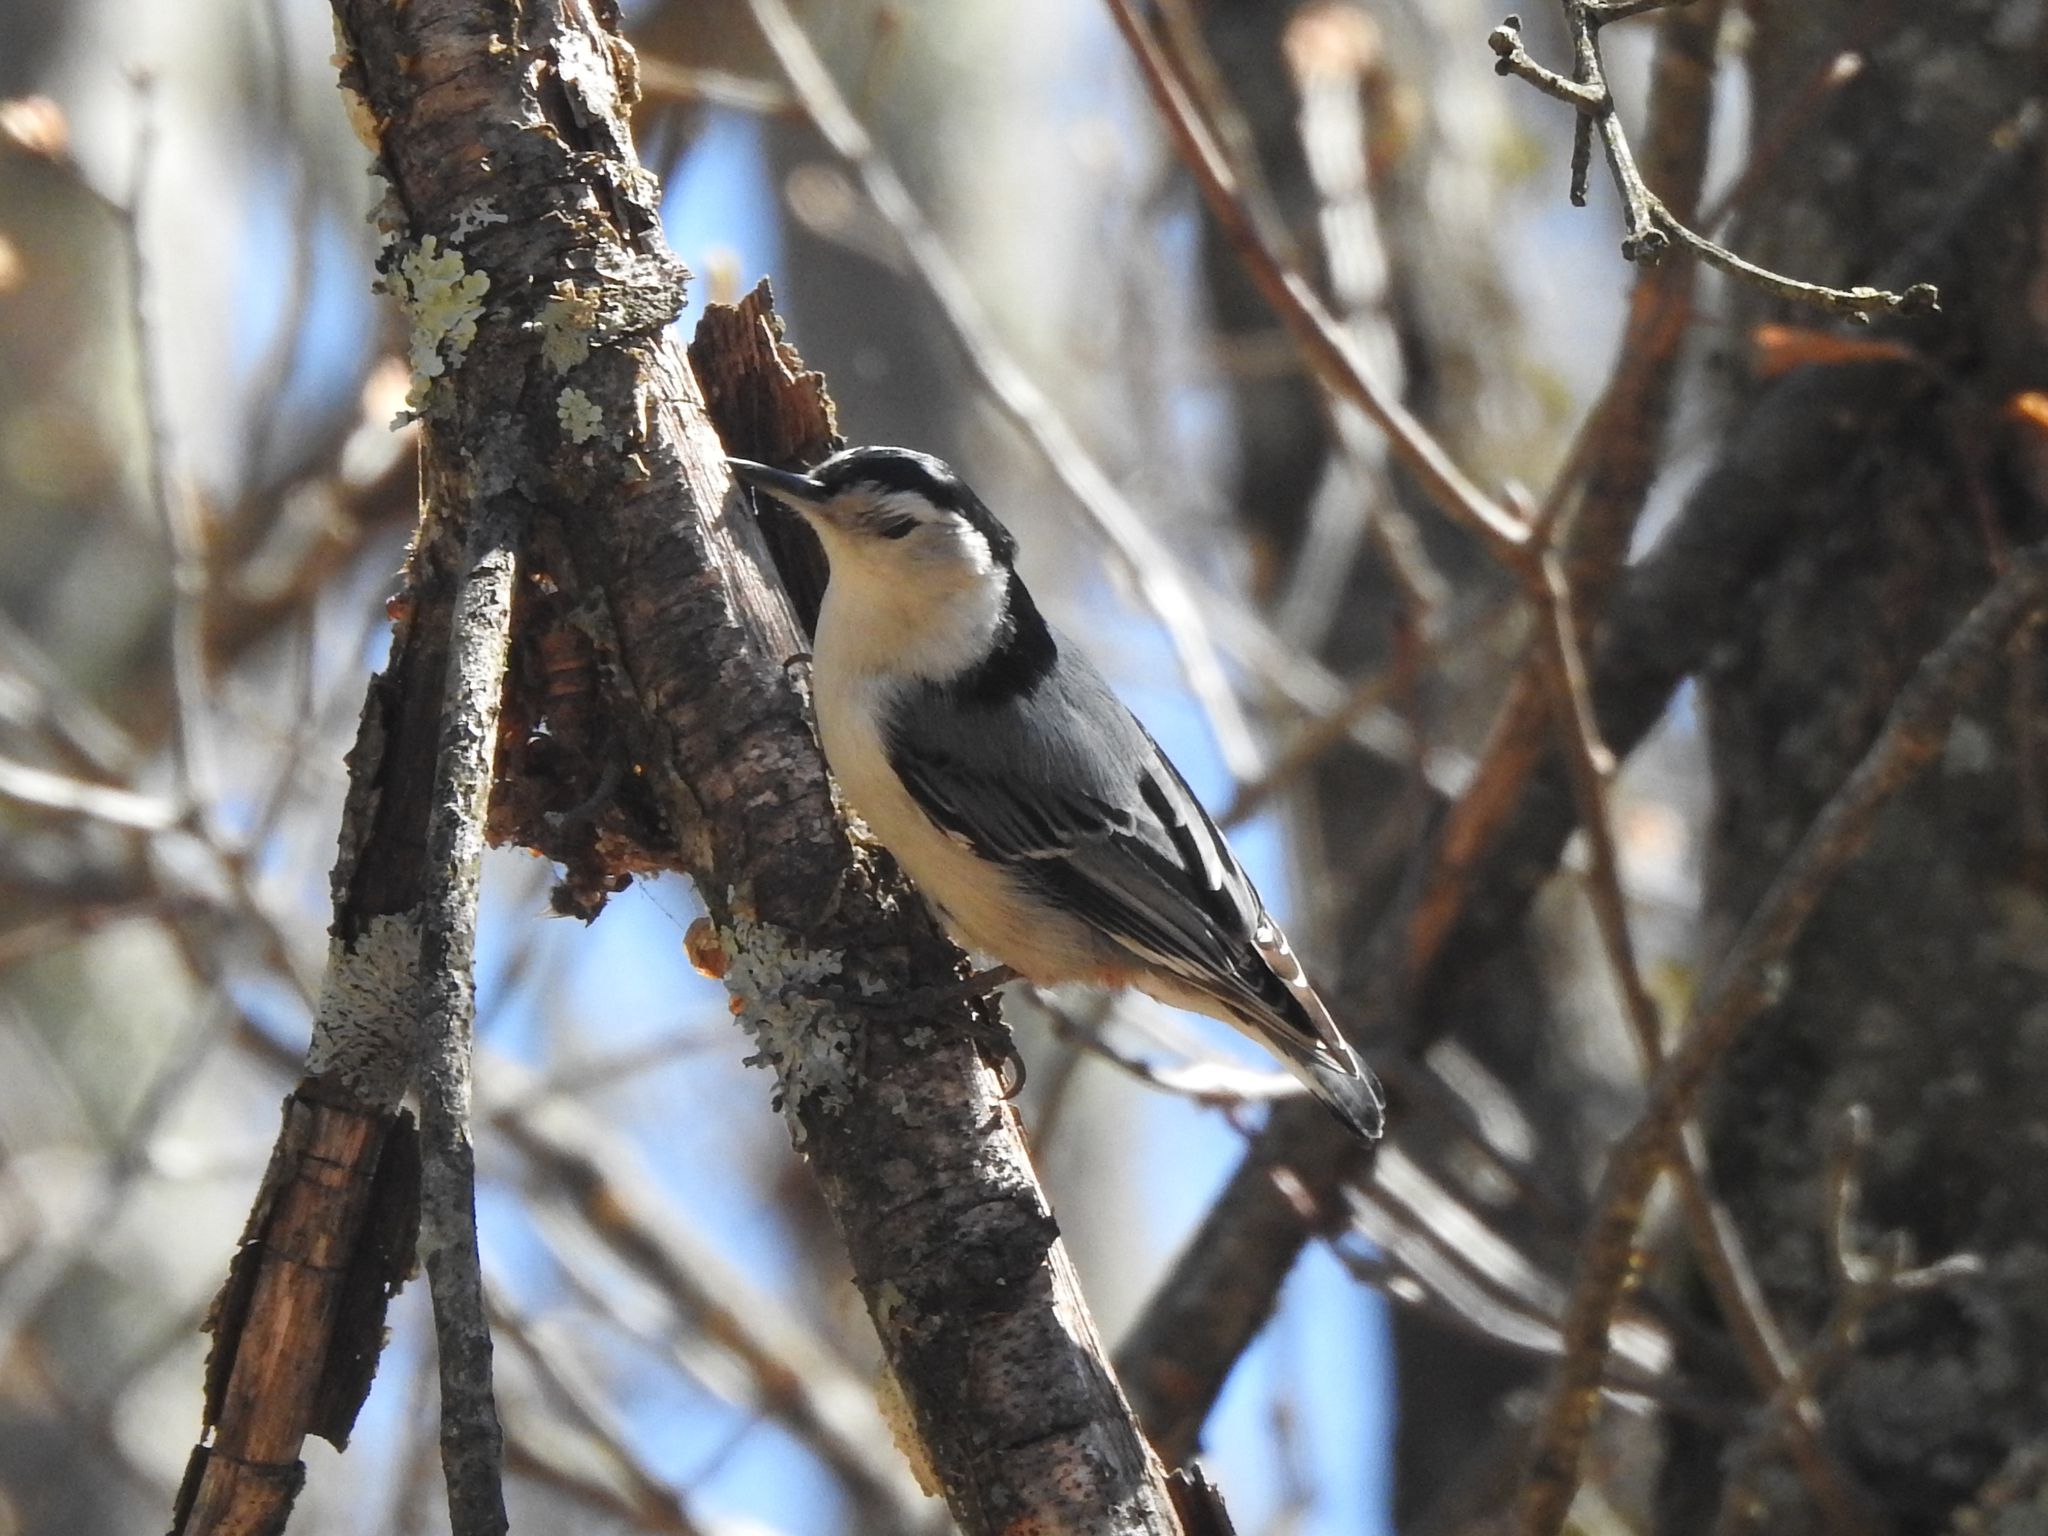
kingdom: Animalia
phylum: Chordata
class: Aves
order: Passeriformes
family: Sittidae
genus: Sitta
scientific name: Sitta carolinensis
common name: White-breasted nuthatch
